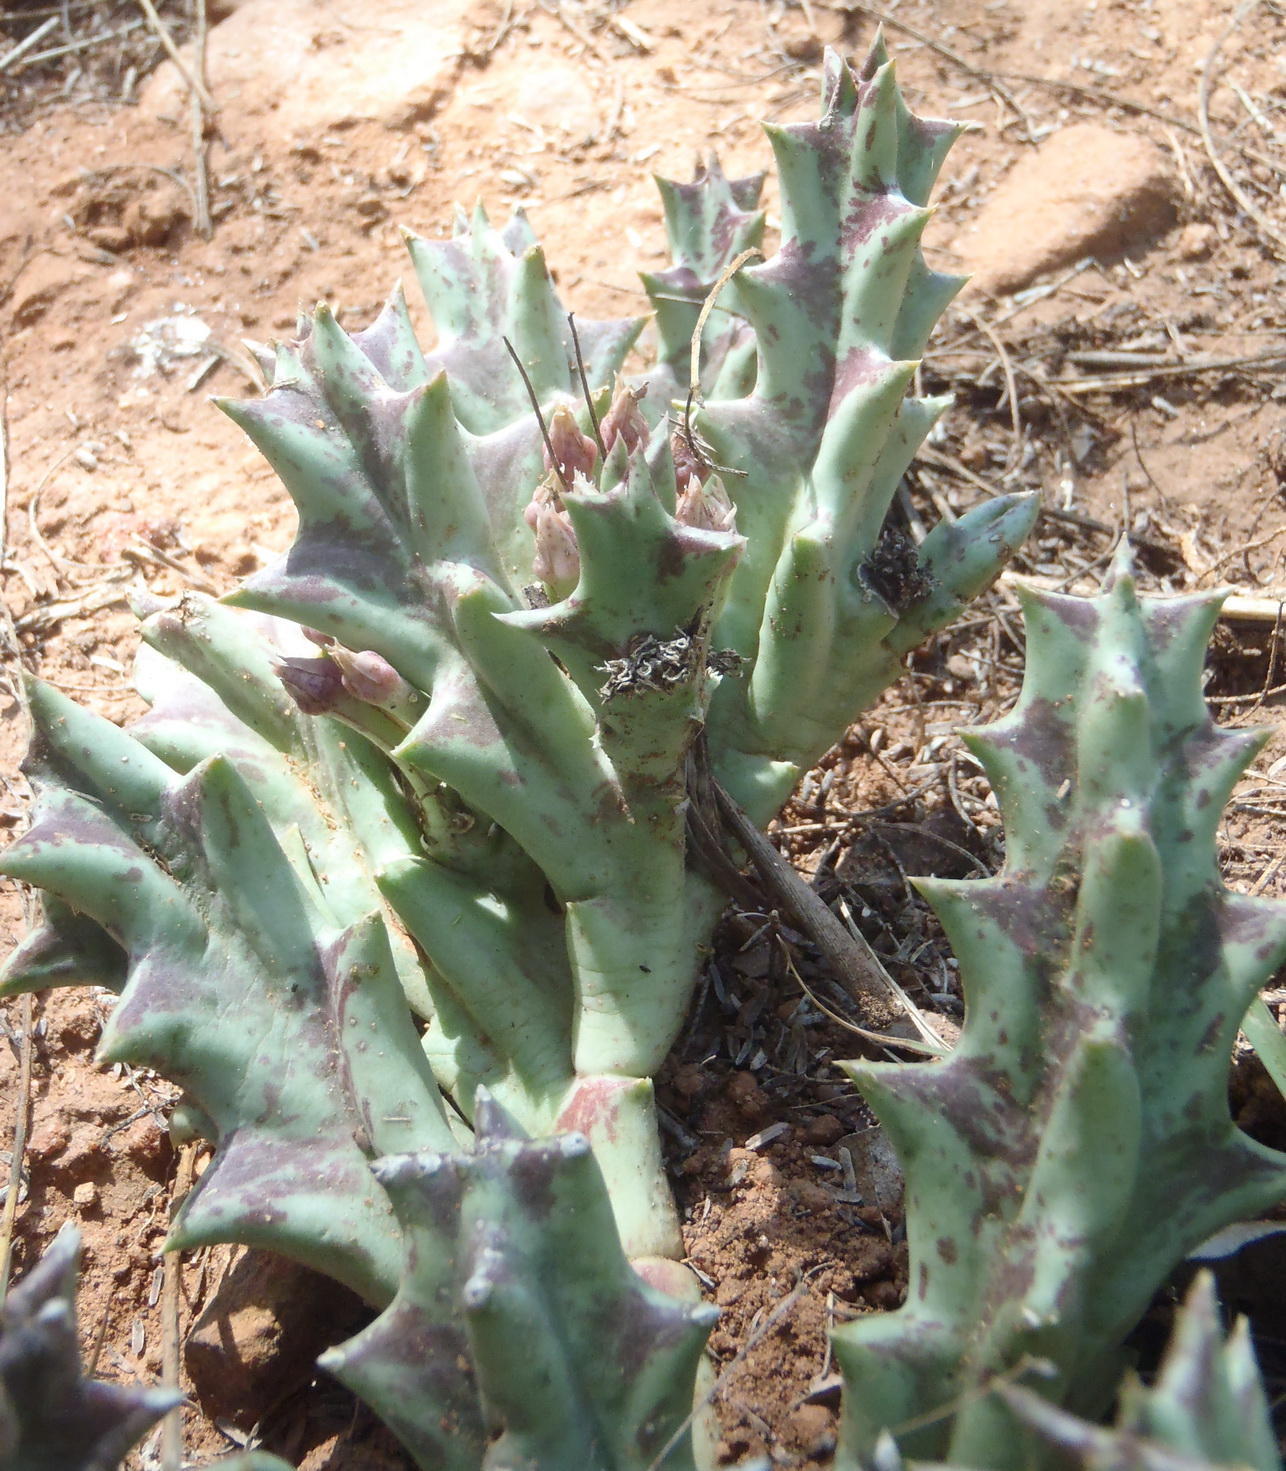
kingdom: Plantae
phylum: Tracheophyta
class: Magnoliopsida
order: Gentianales
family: Apocynaceae
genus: Ceropegia
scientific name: Ceropegia lutea
